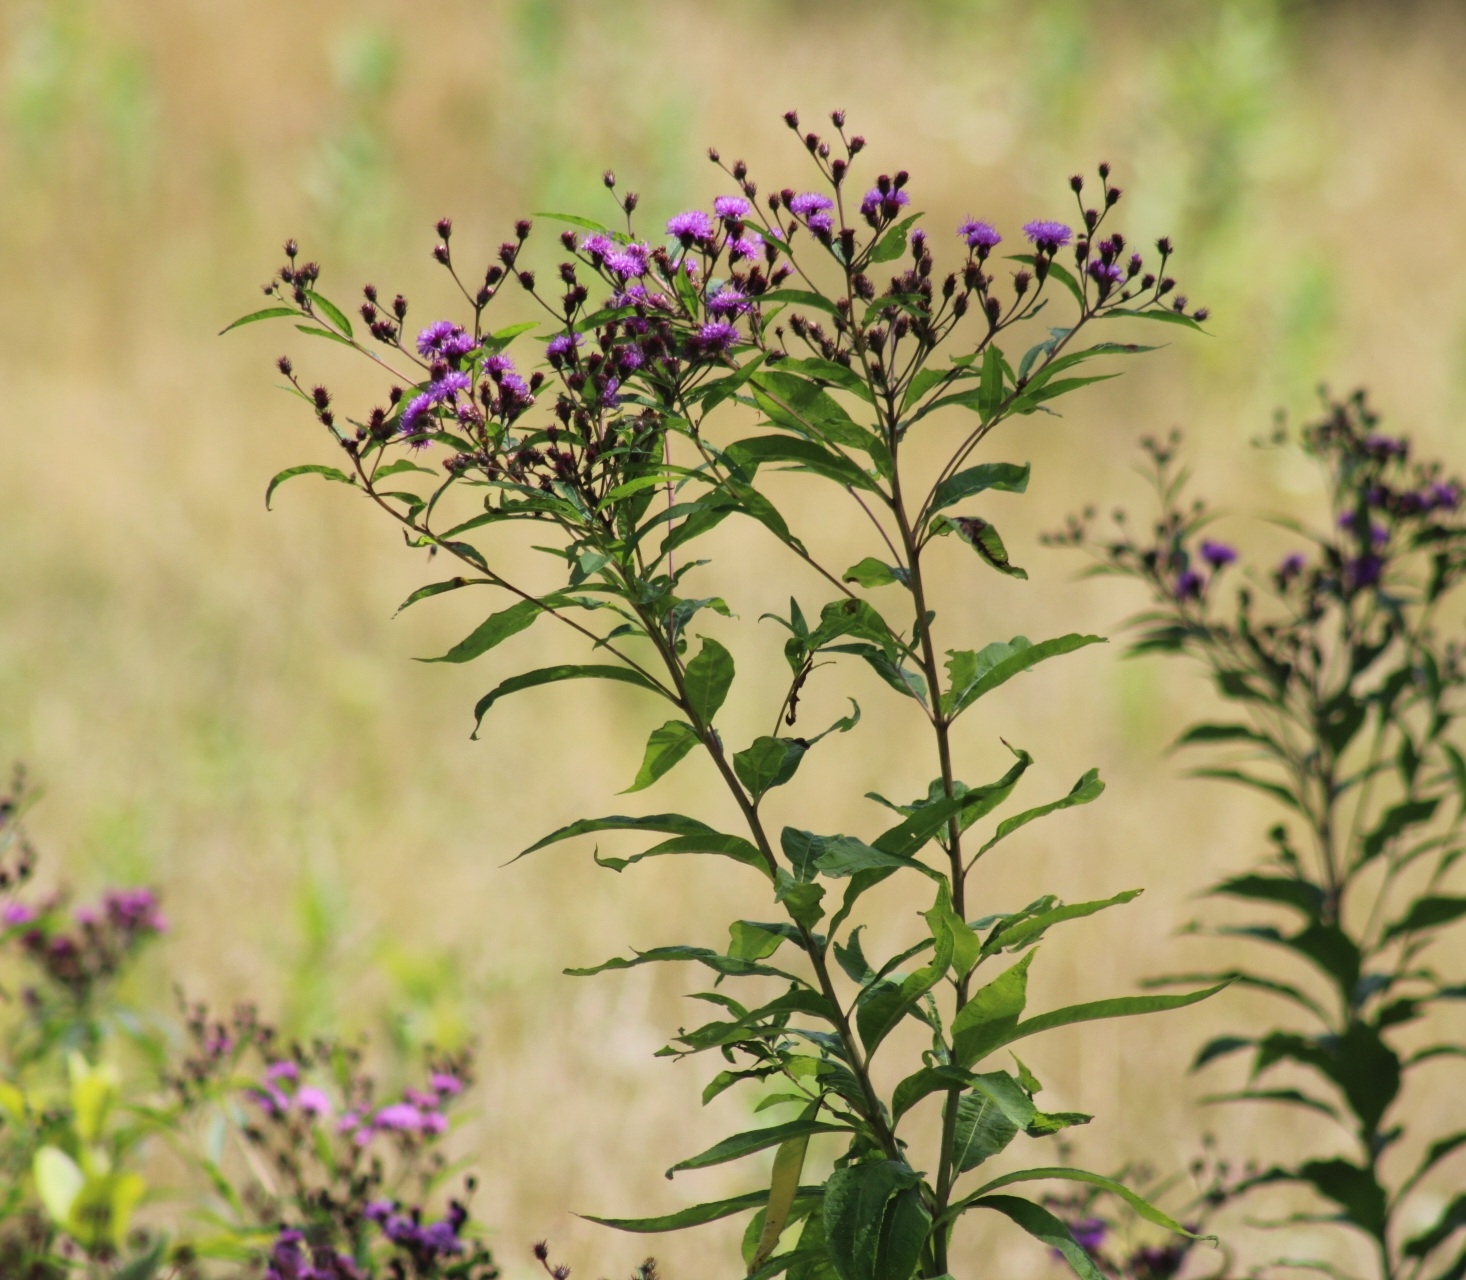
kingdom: Plantae
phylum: Tracheophyta
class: Magnoliopsida
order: Asterales
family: Asteraceae
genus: Vernonia
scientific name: Vernonia noveboracensis
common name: New york ironweed
